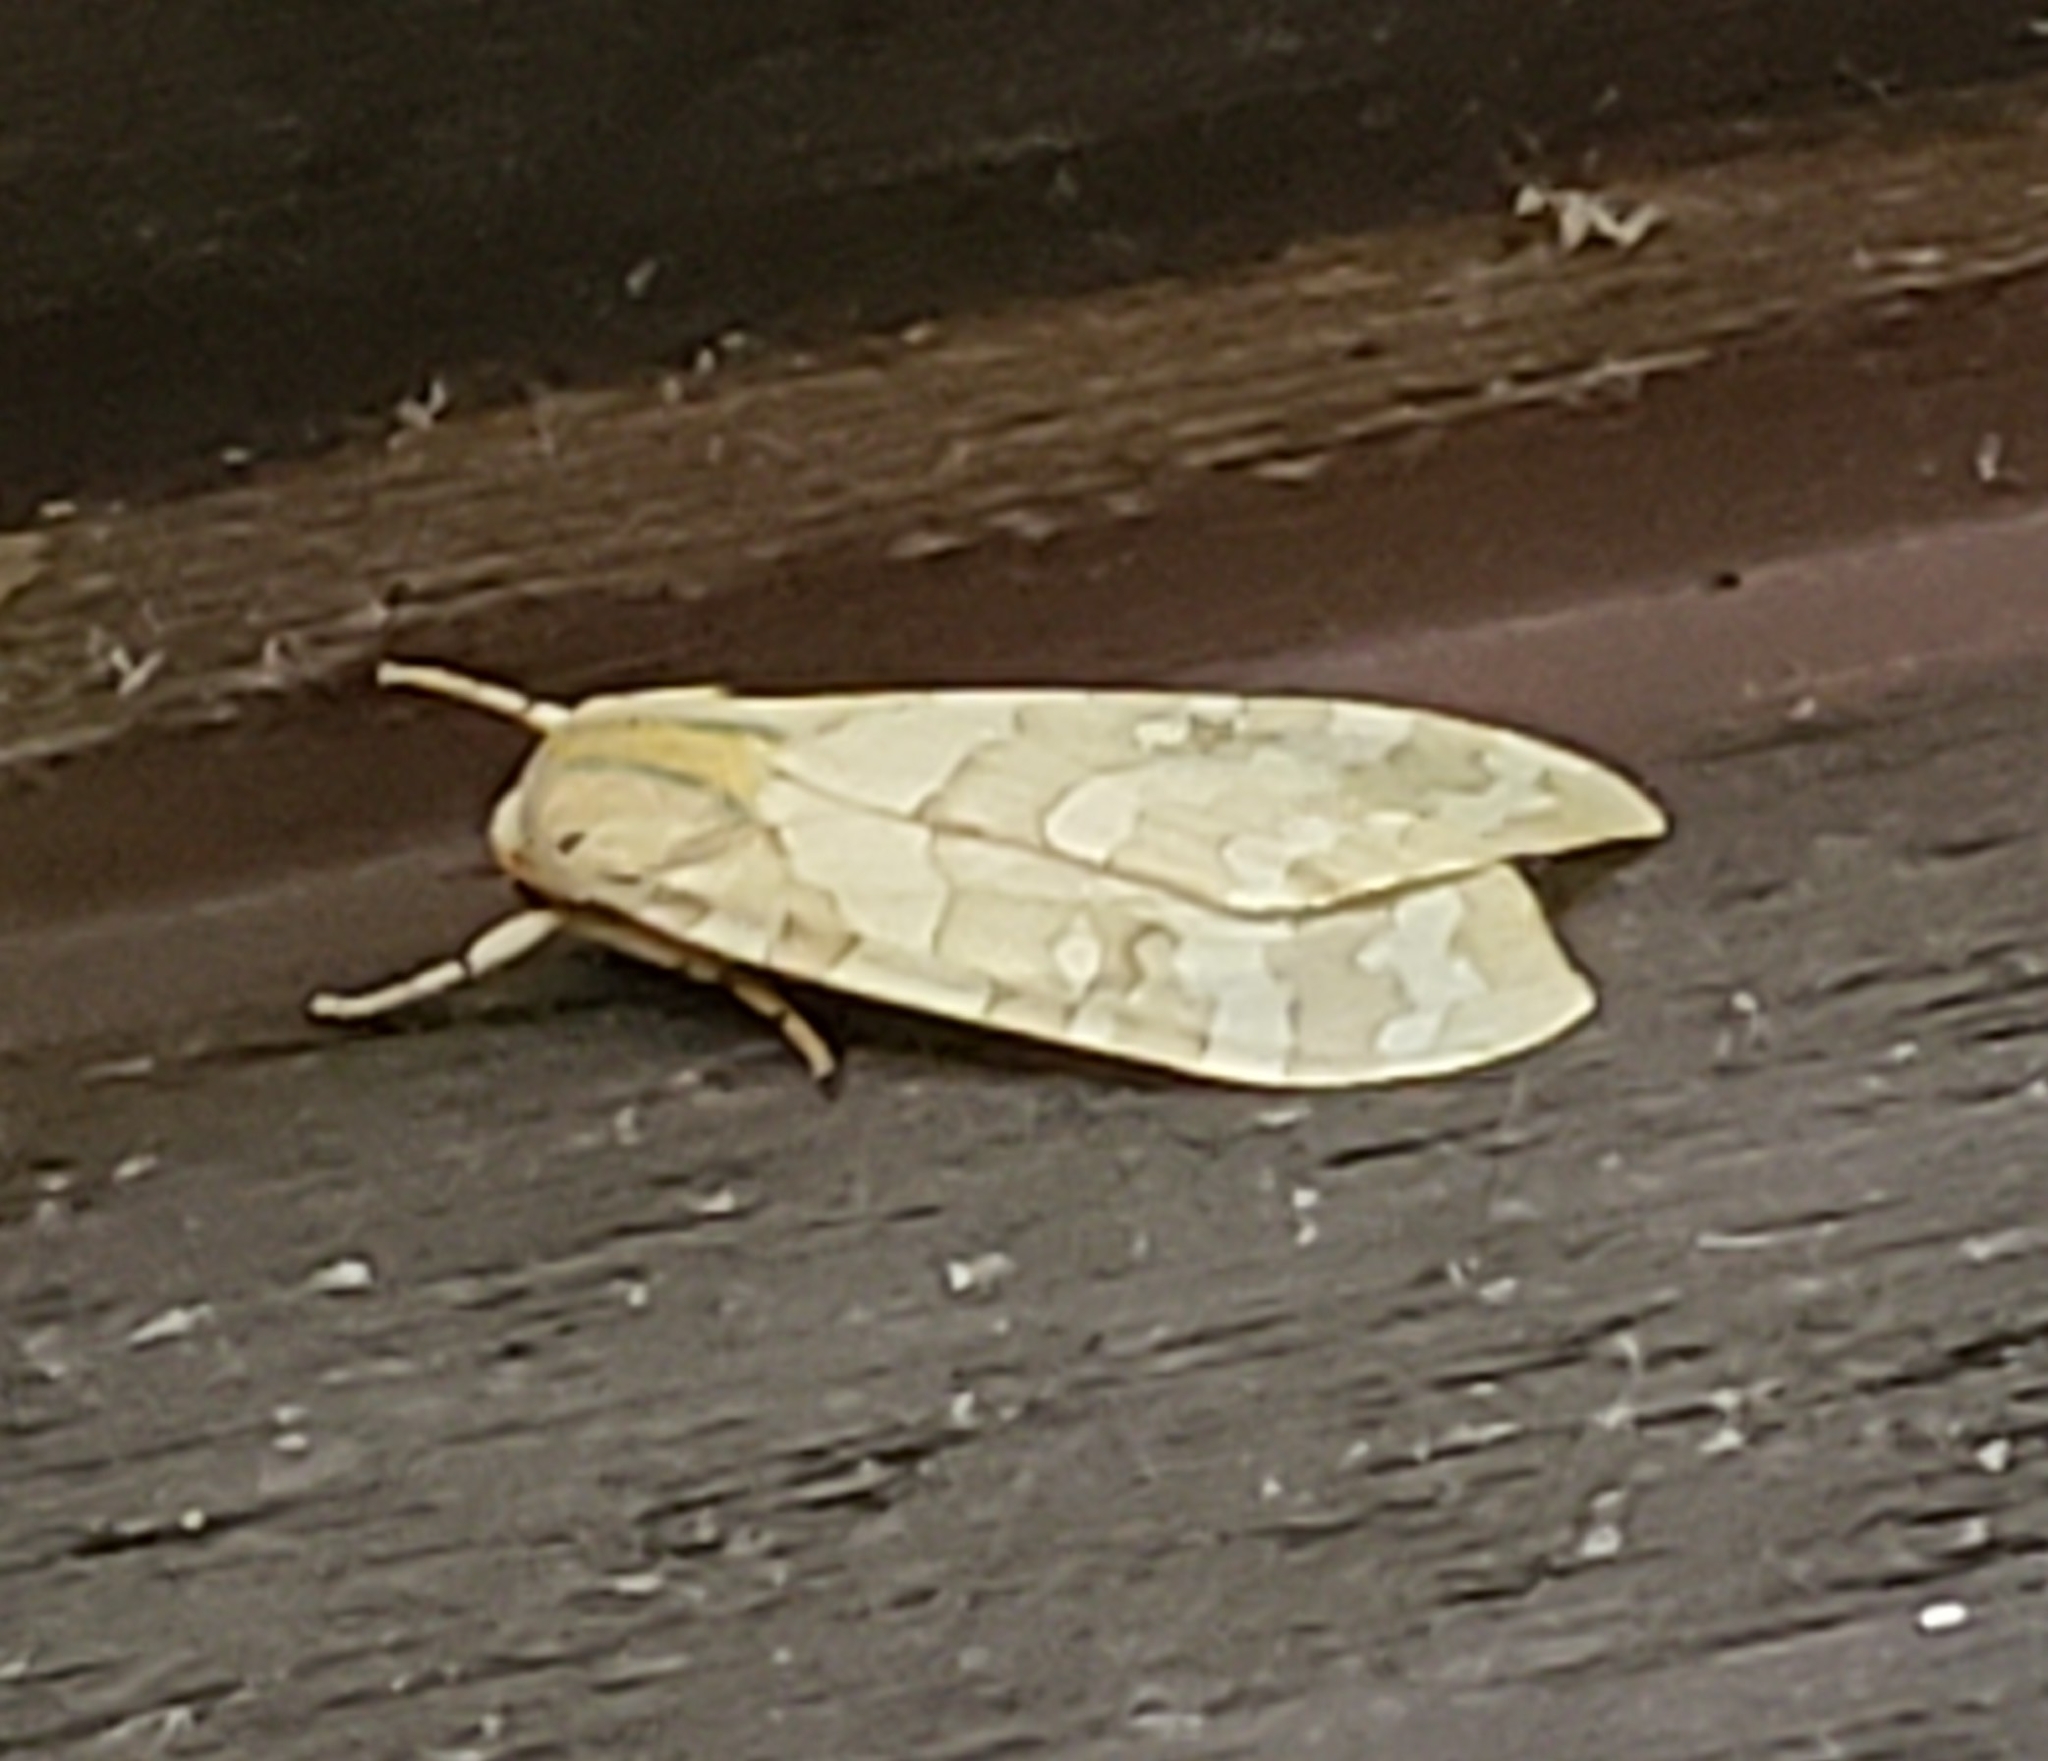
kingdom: Animalia
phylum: Arthropoda
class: Insecta
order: Lepidoptera
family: Erebidae
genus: Halysidota
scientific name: Halysidota
